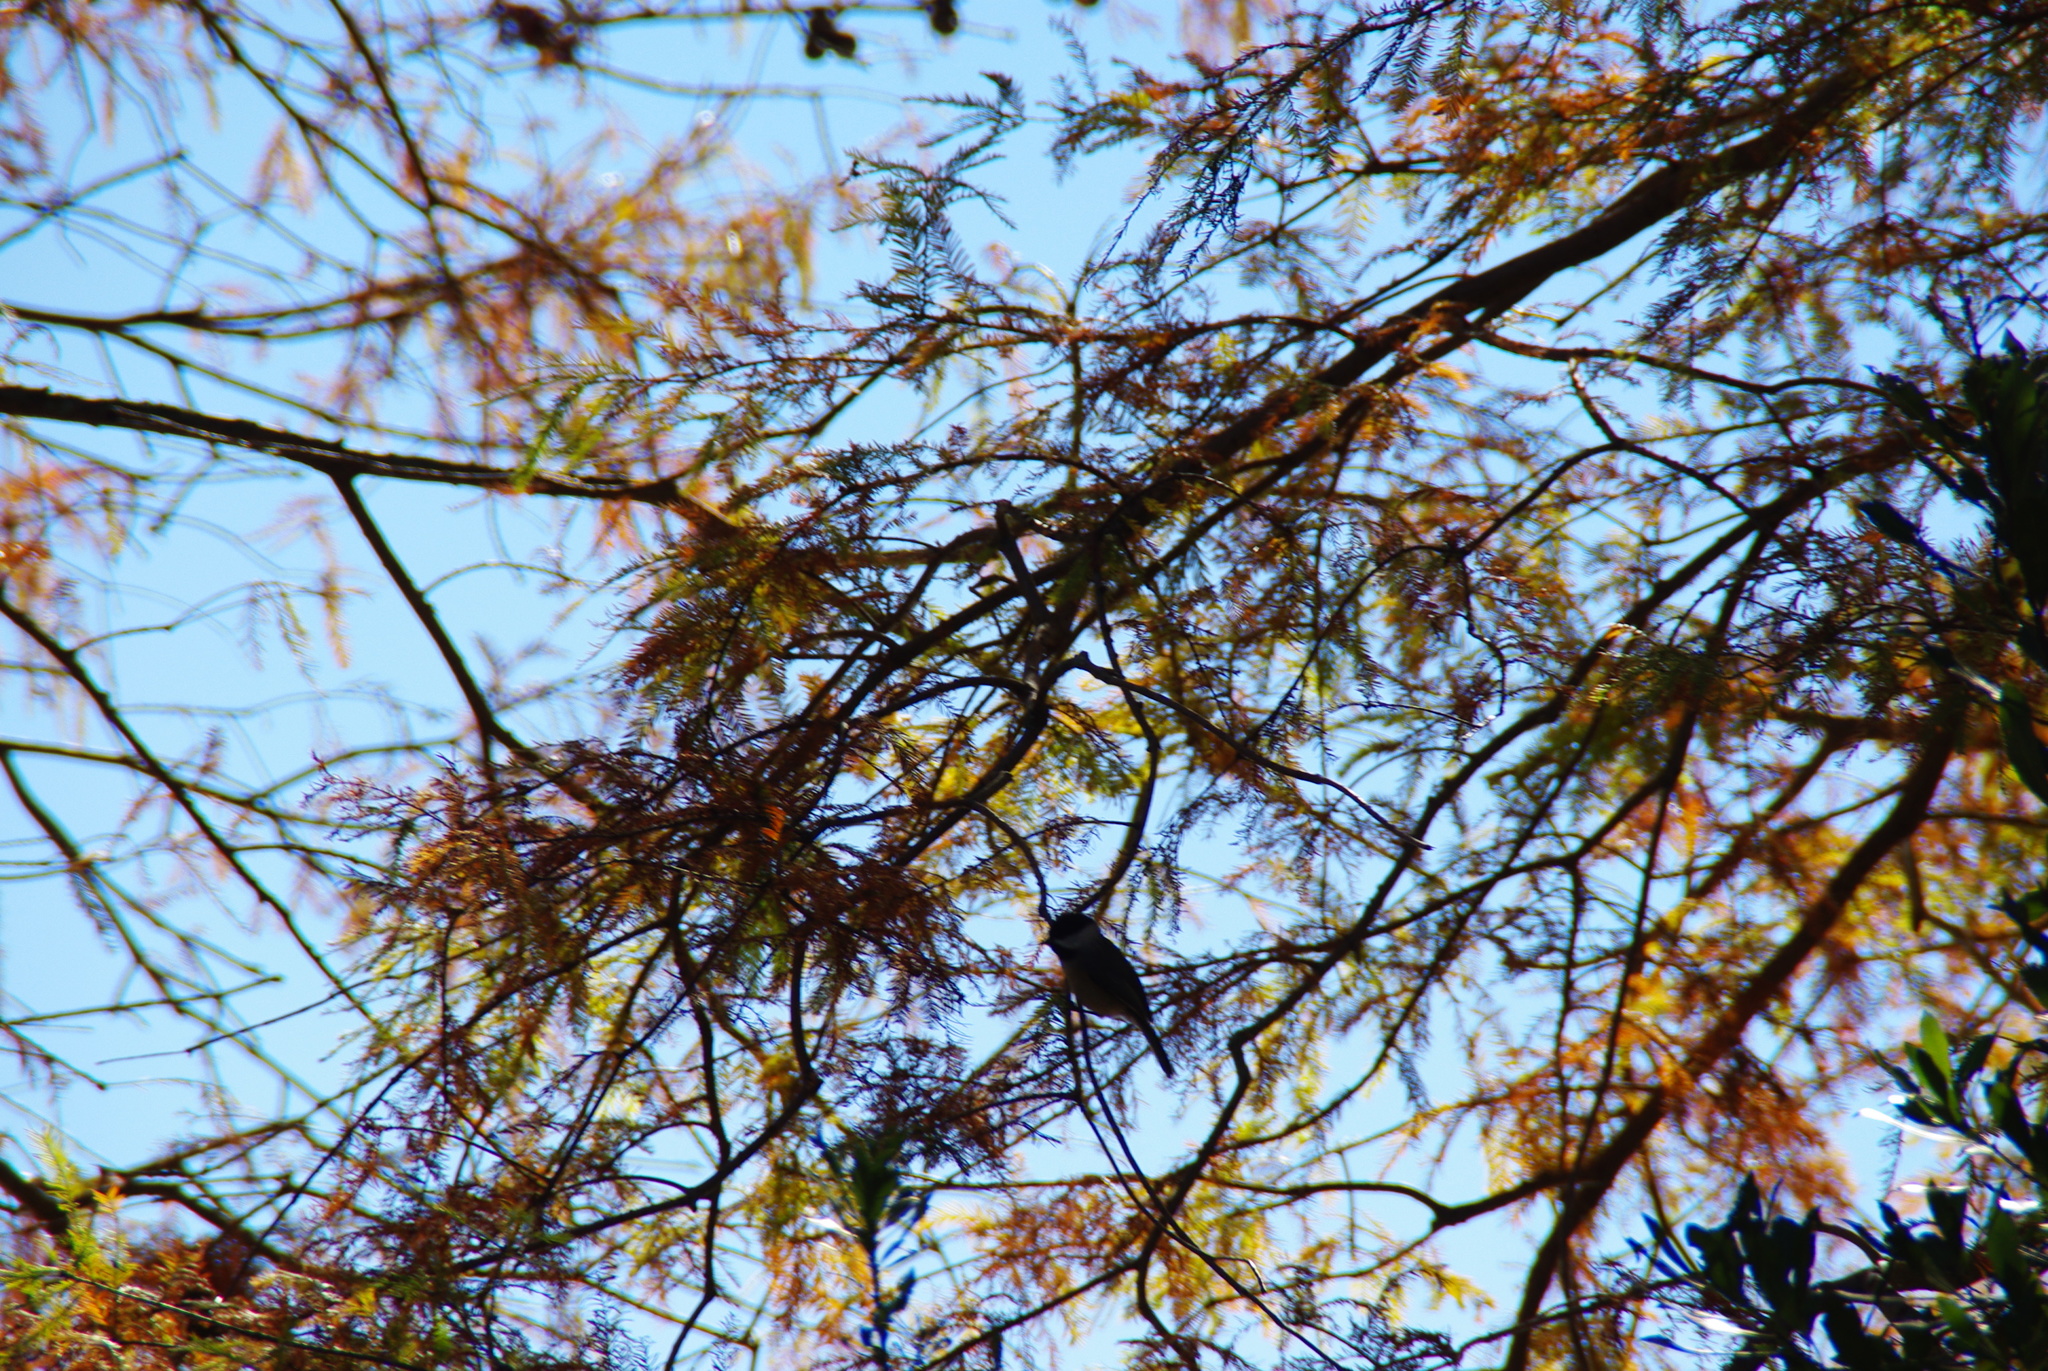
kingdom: Animalia
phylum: Chordata
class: Aves
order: Passeriformes
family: Paridae
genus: Poecile
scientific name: Poecile carolinensis
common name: Carolina chickadee
